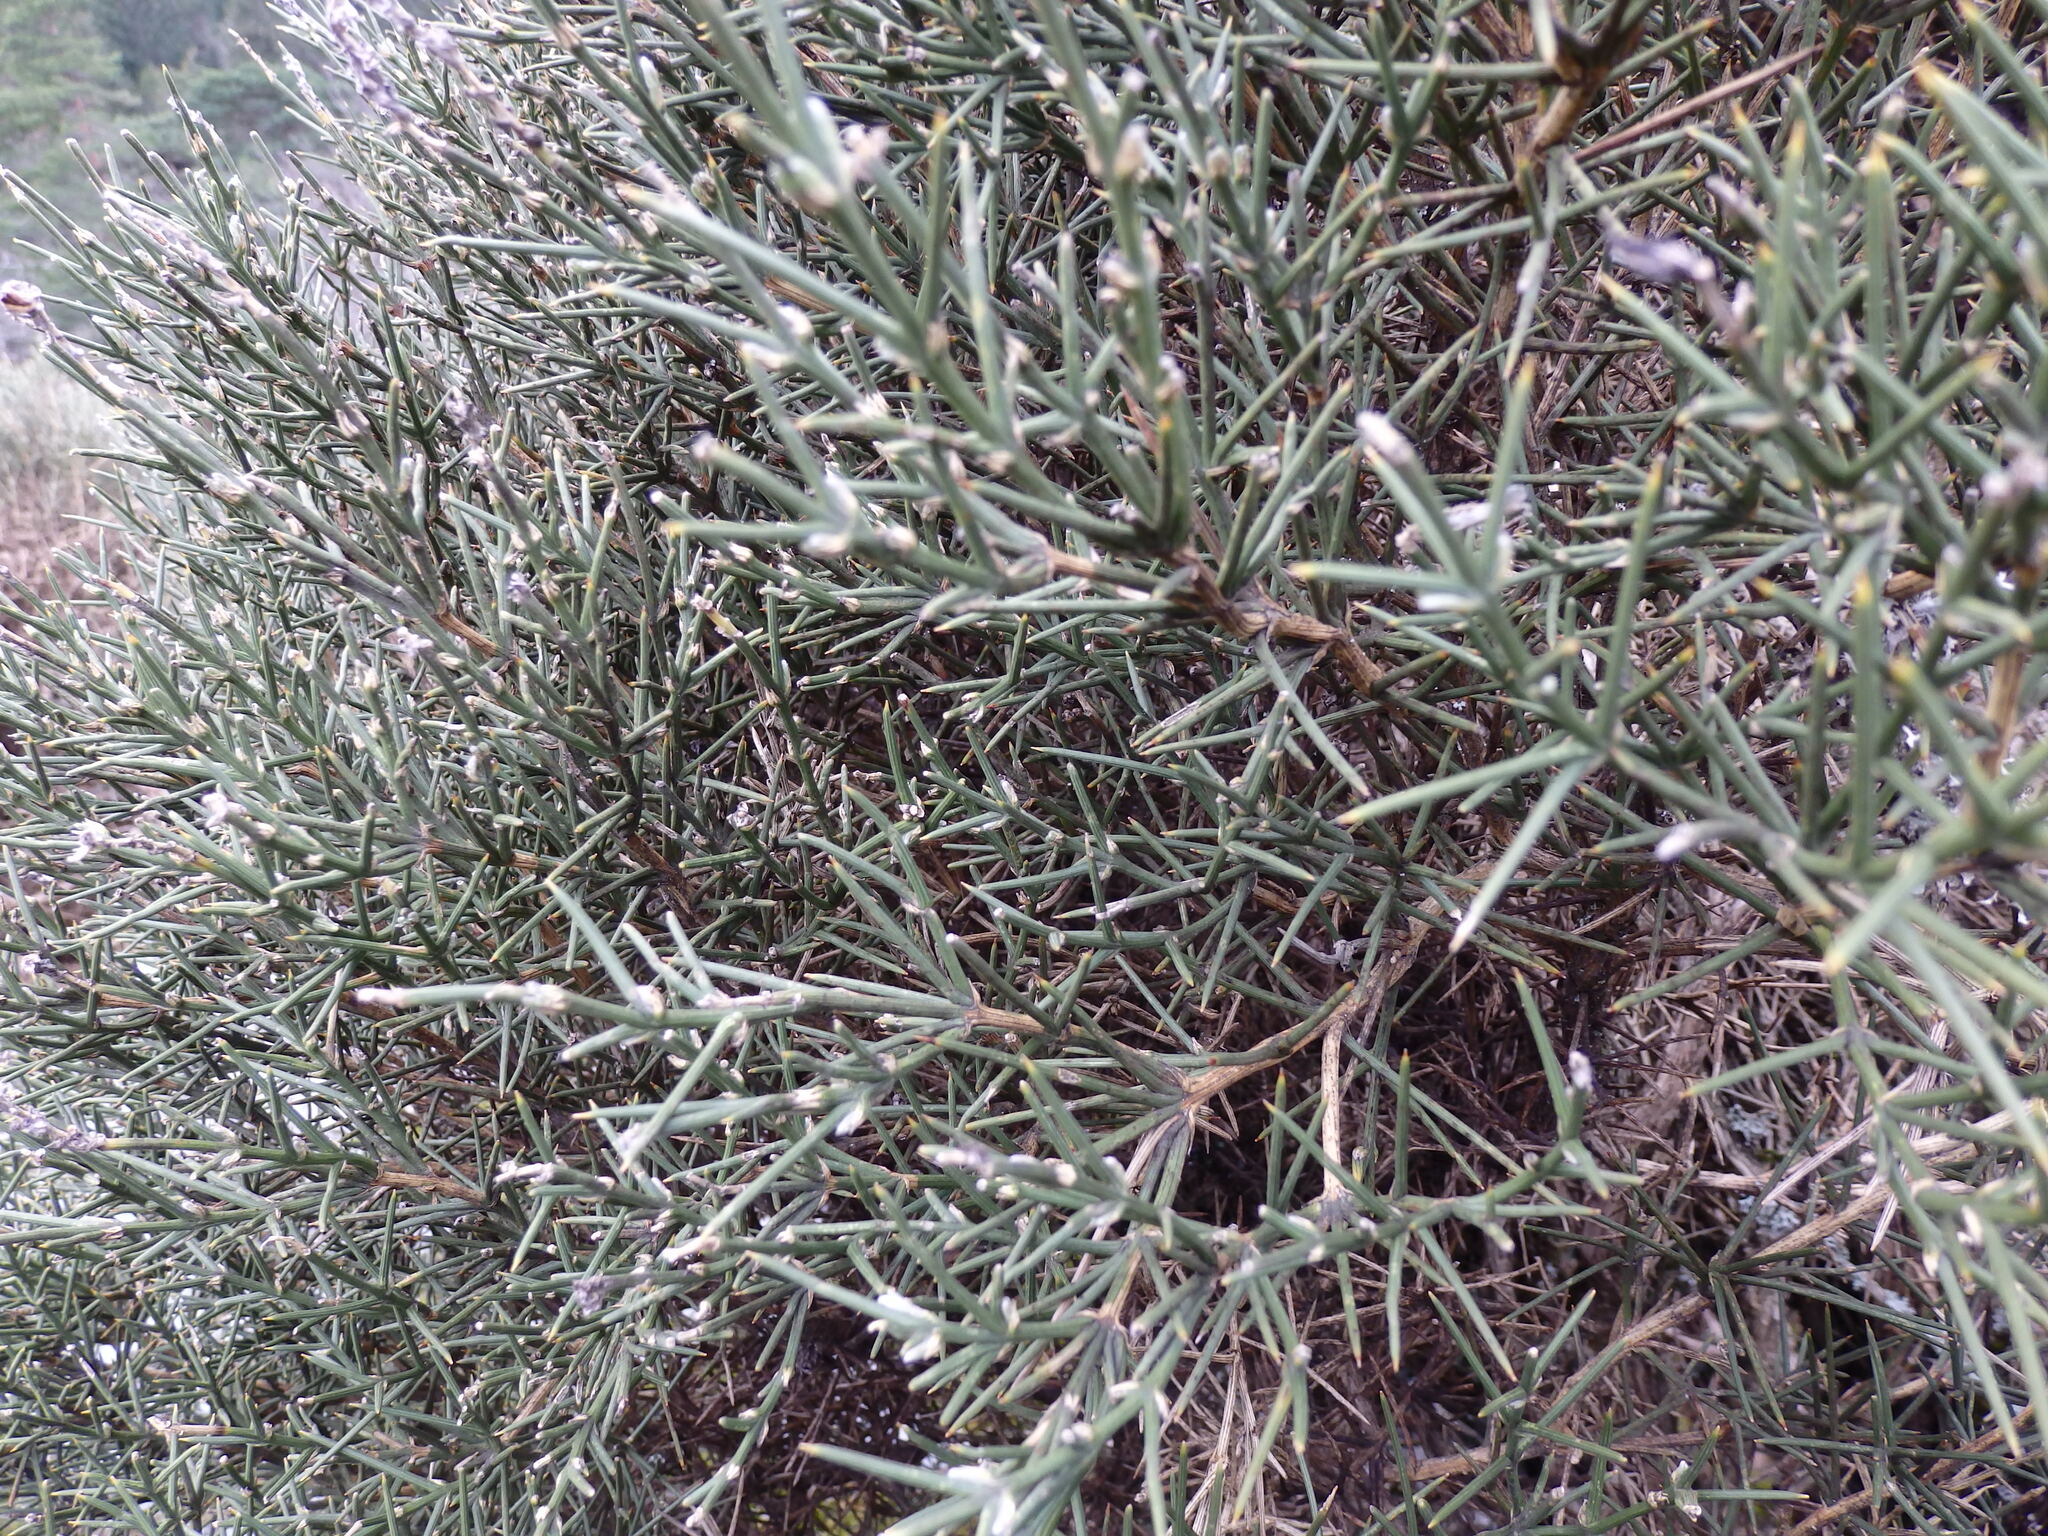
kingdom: Plantae
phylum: Tracheophyta
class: Magnoliopsida
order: Fabales
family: Fabaceae
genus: Echinospartum
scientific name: Echinospartum ibericum
